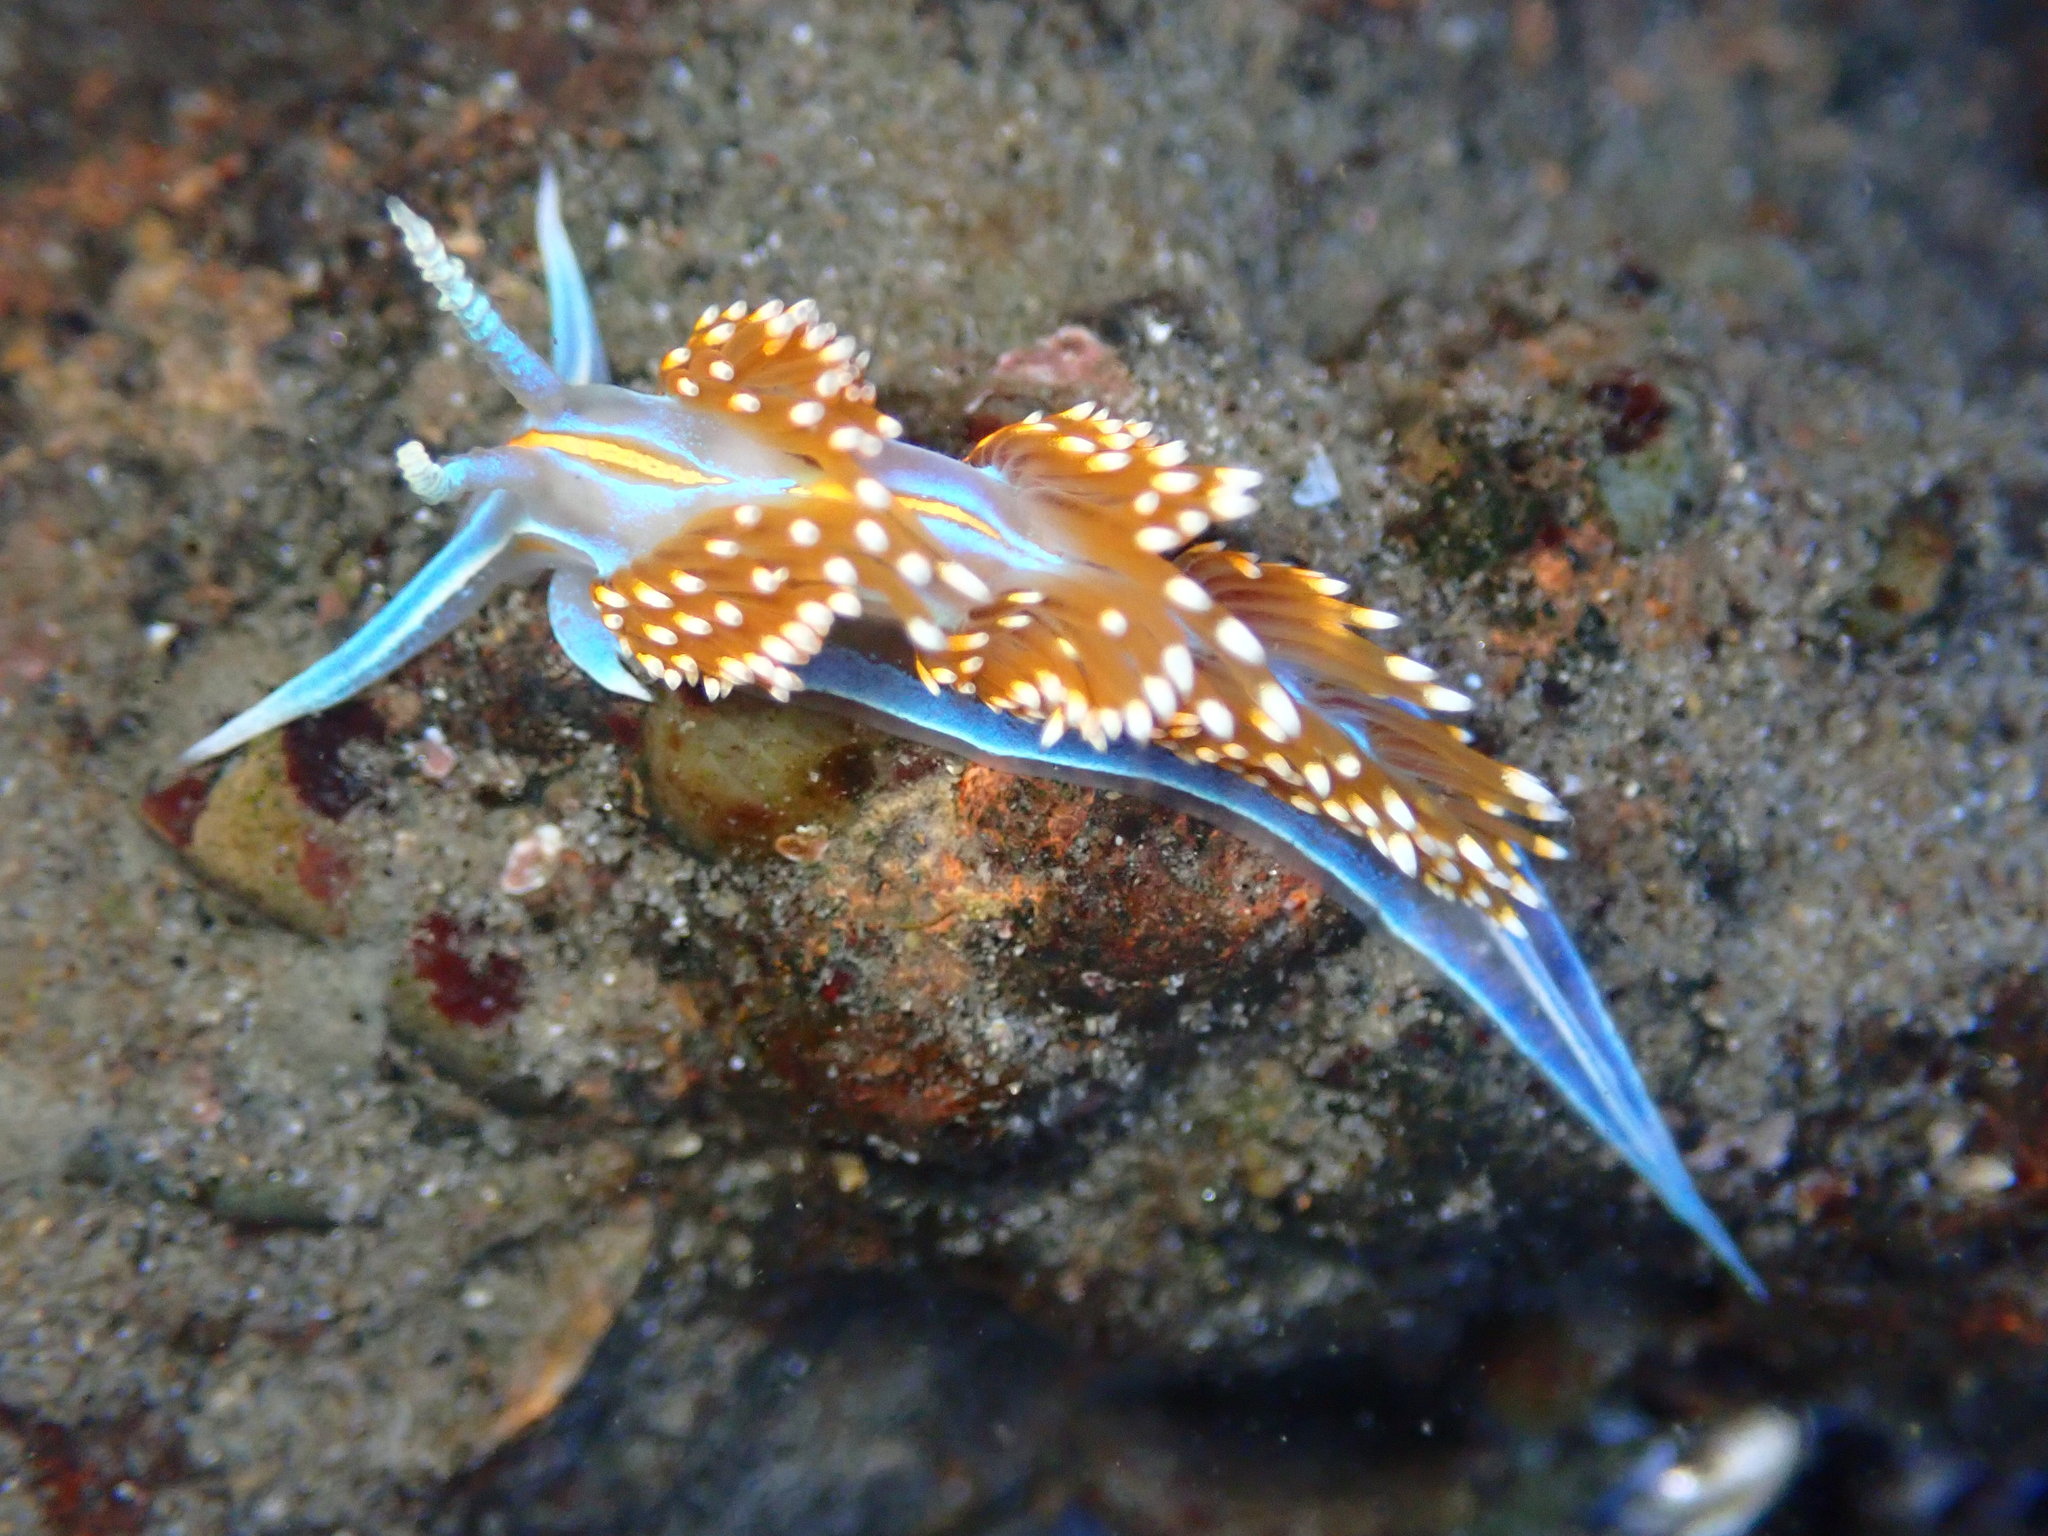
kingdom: Animalia
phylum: Mollusca
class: Gastropoda
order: Nudibranchia
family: Myrrhinidae
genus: Hermissenda
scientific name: Hermissenda opalescens
